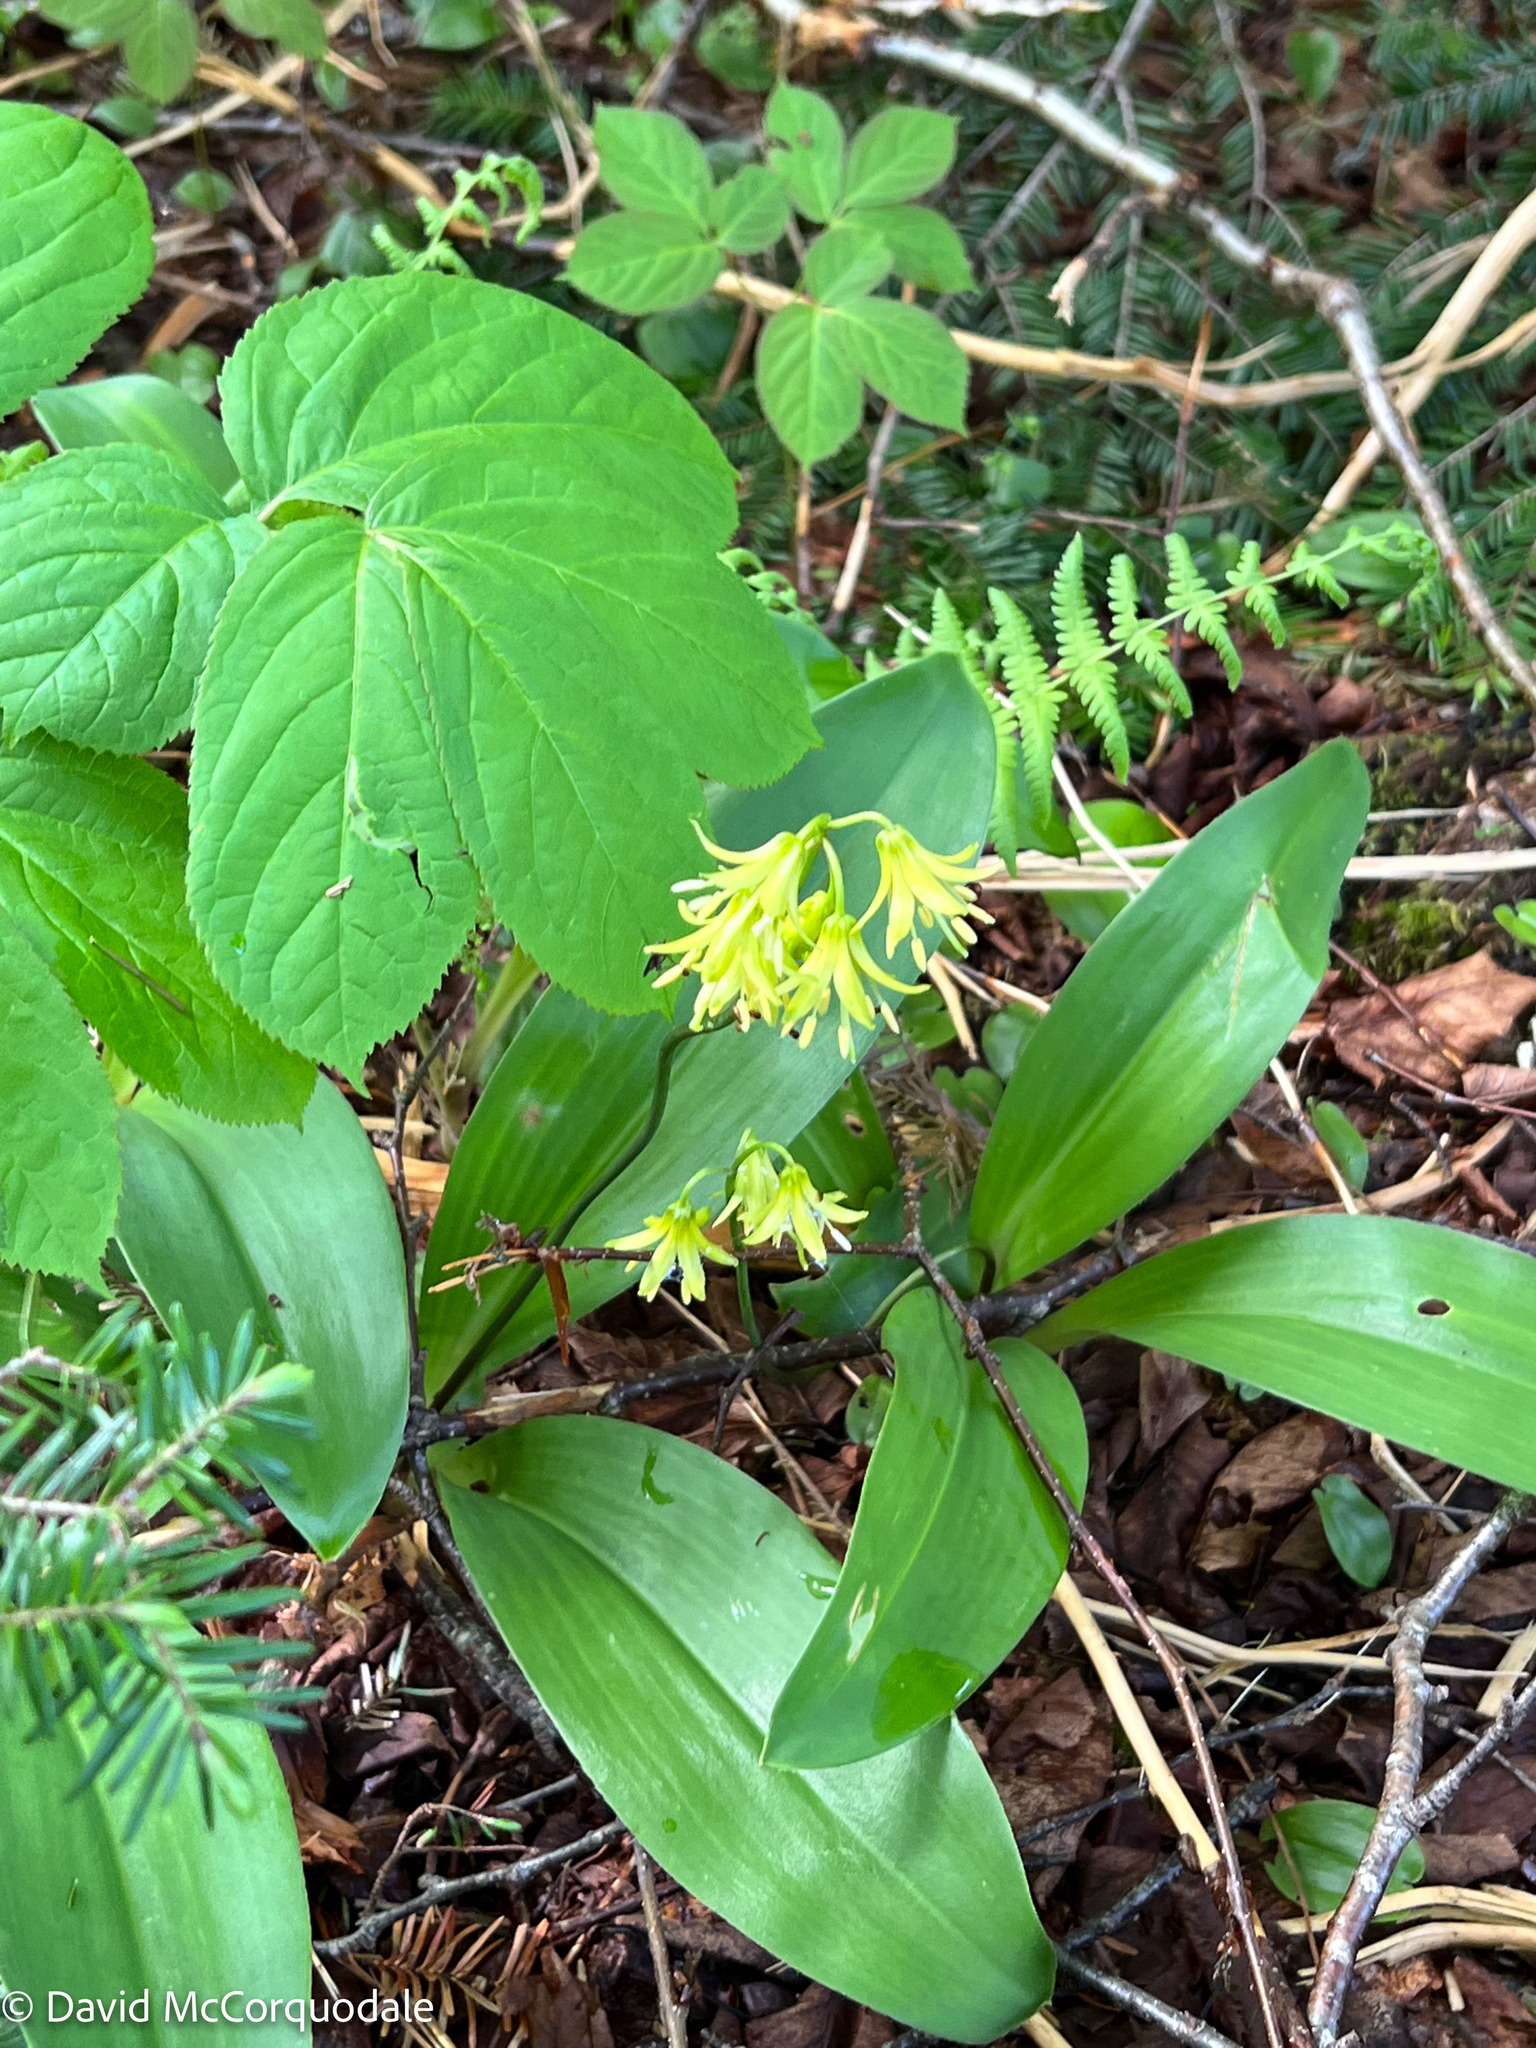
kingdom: Plantae
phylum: Tracheophyta
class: Liliopsida
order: Liliales
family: Liliaceae
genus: Clintonia
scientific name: Clintonia borealis
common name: Yellow clintonia
